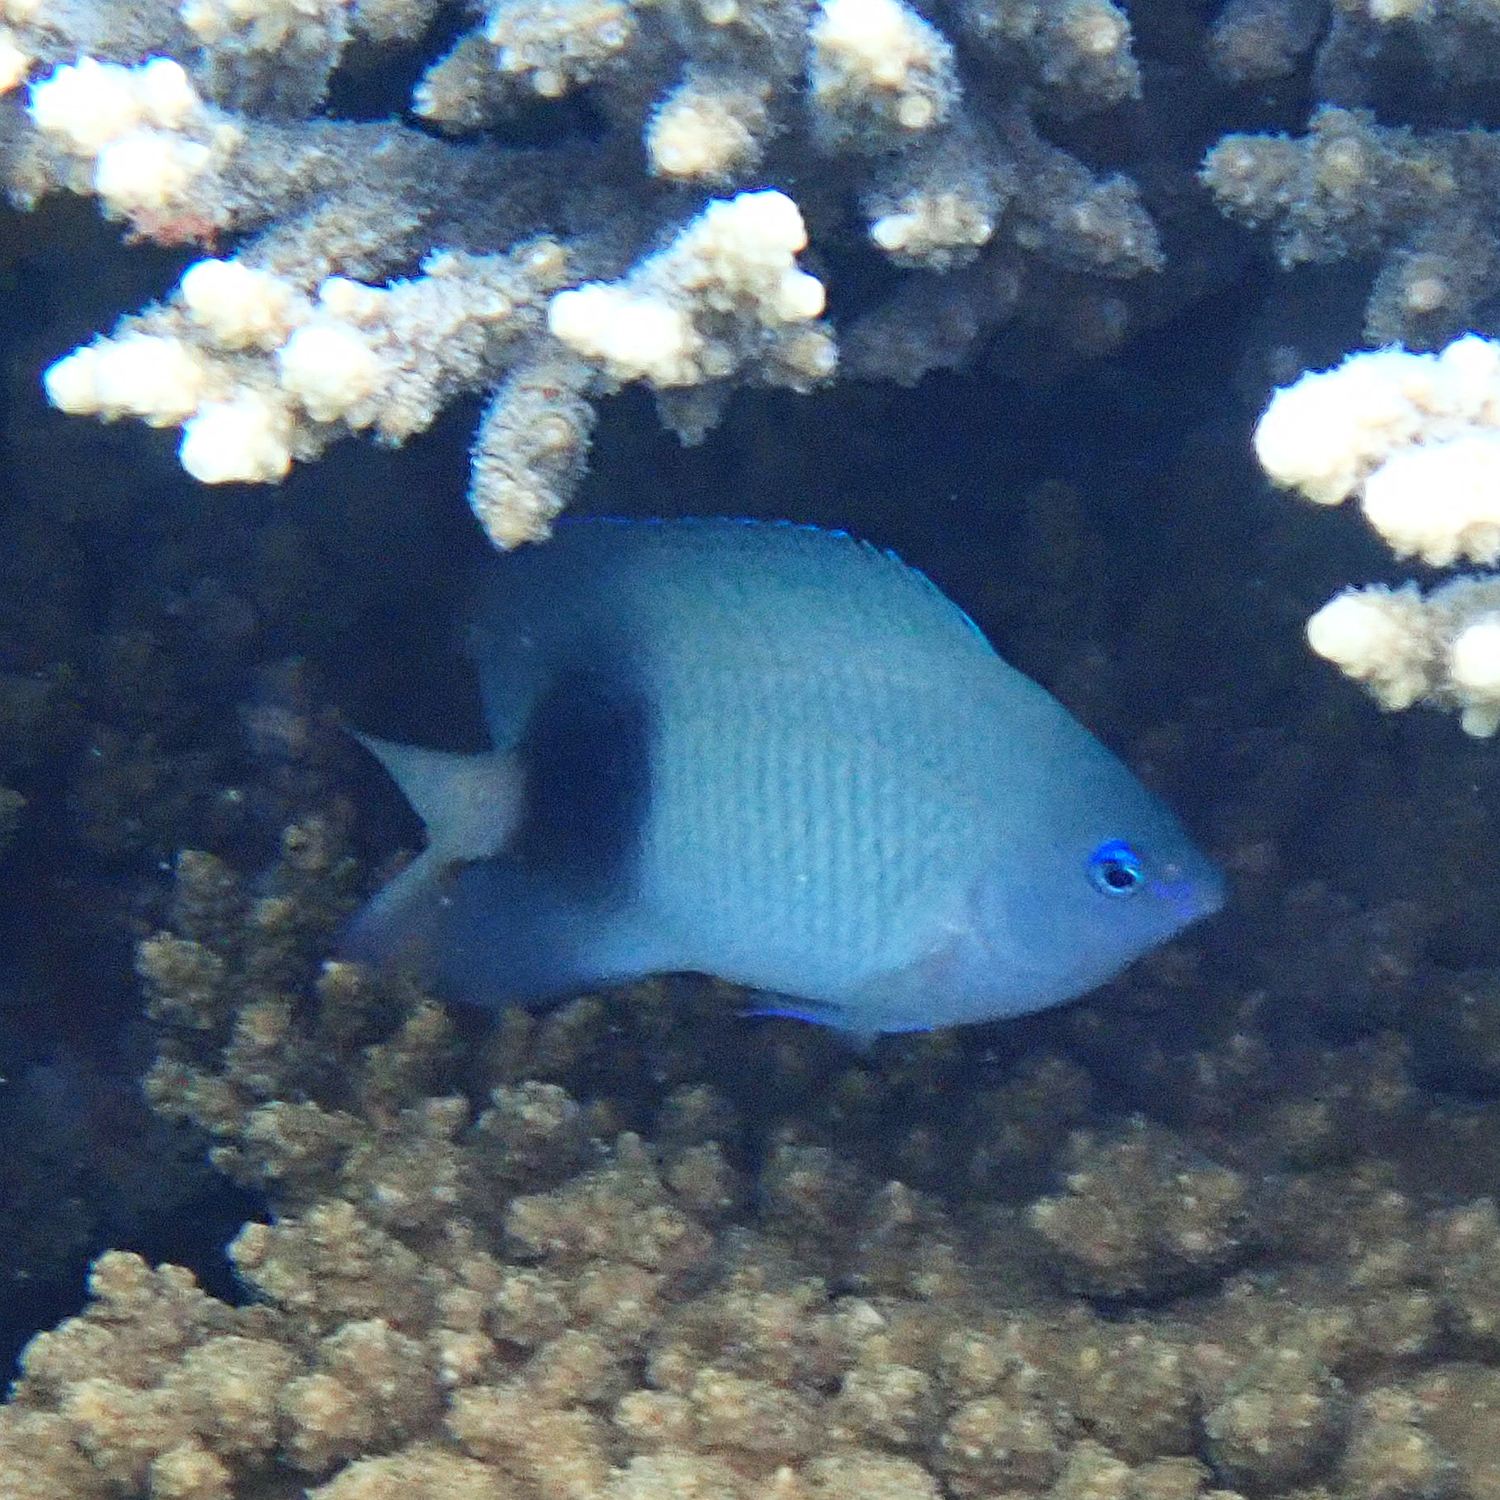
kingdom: Animalia
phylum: Chordata
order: Perciformes
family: Pomacentridae
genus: Plectroglyphidodon
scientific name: Plectroglyphidodon johnstonianus
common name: Johnston damsel
